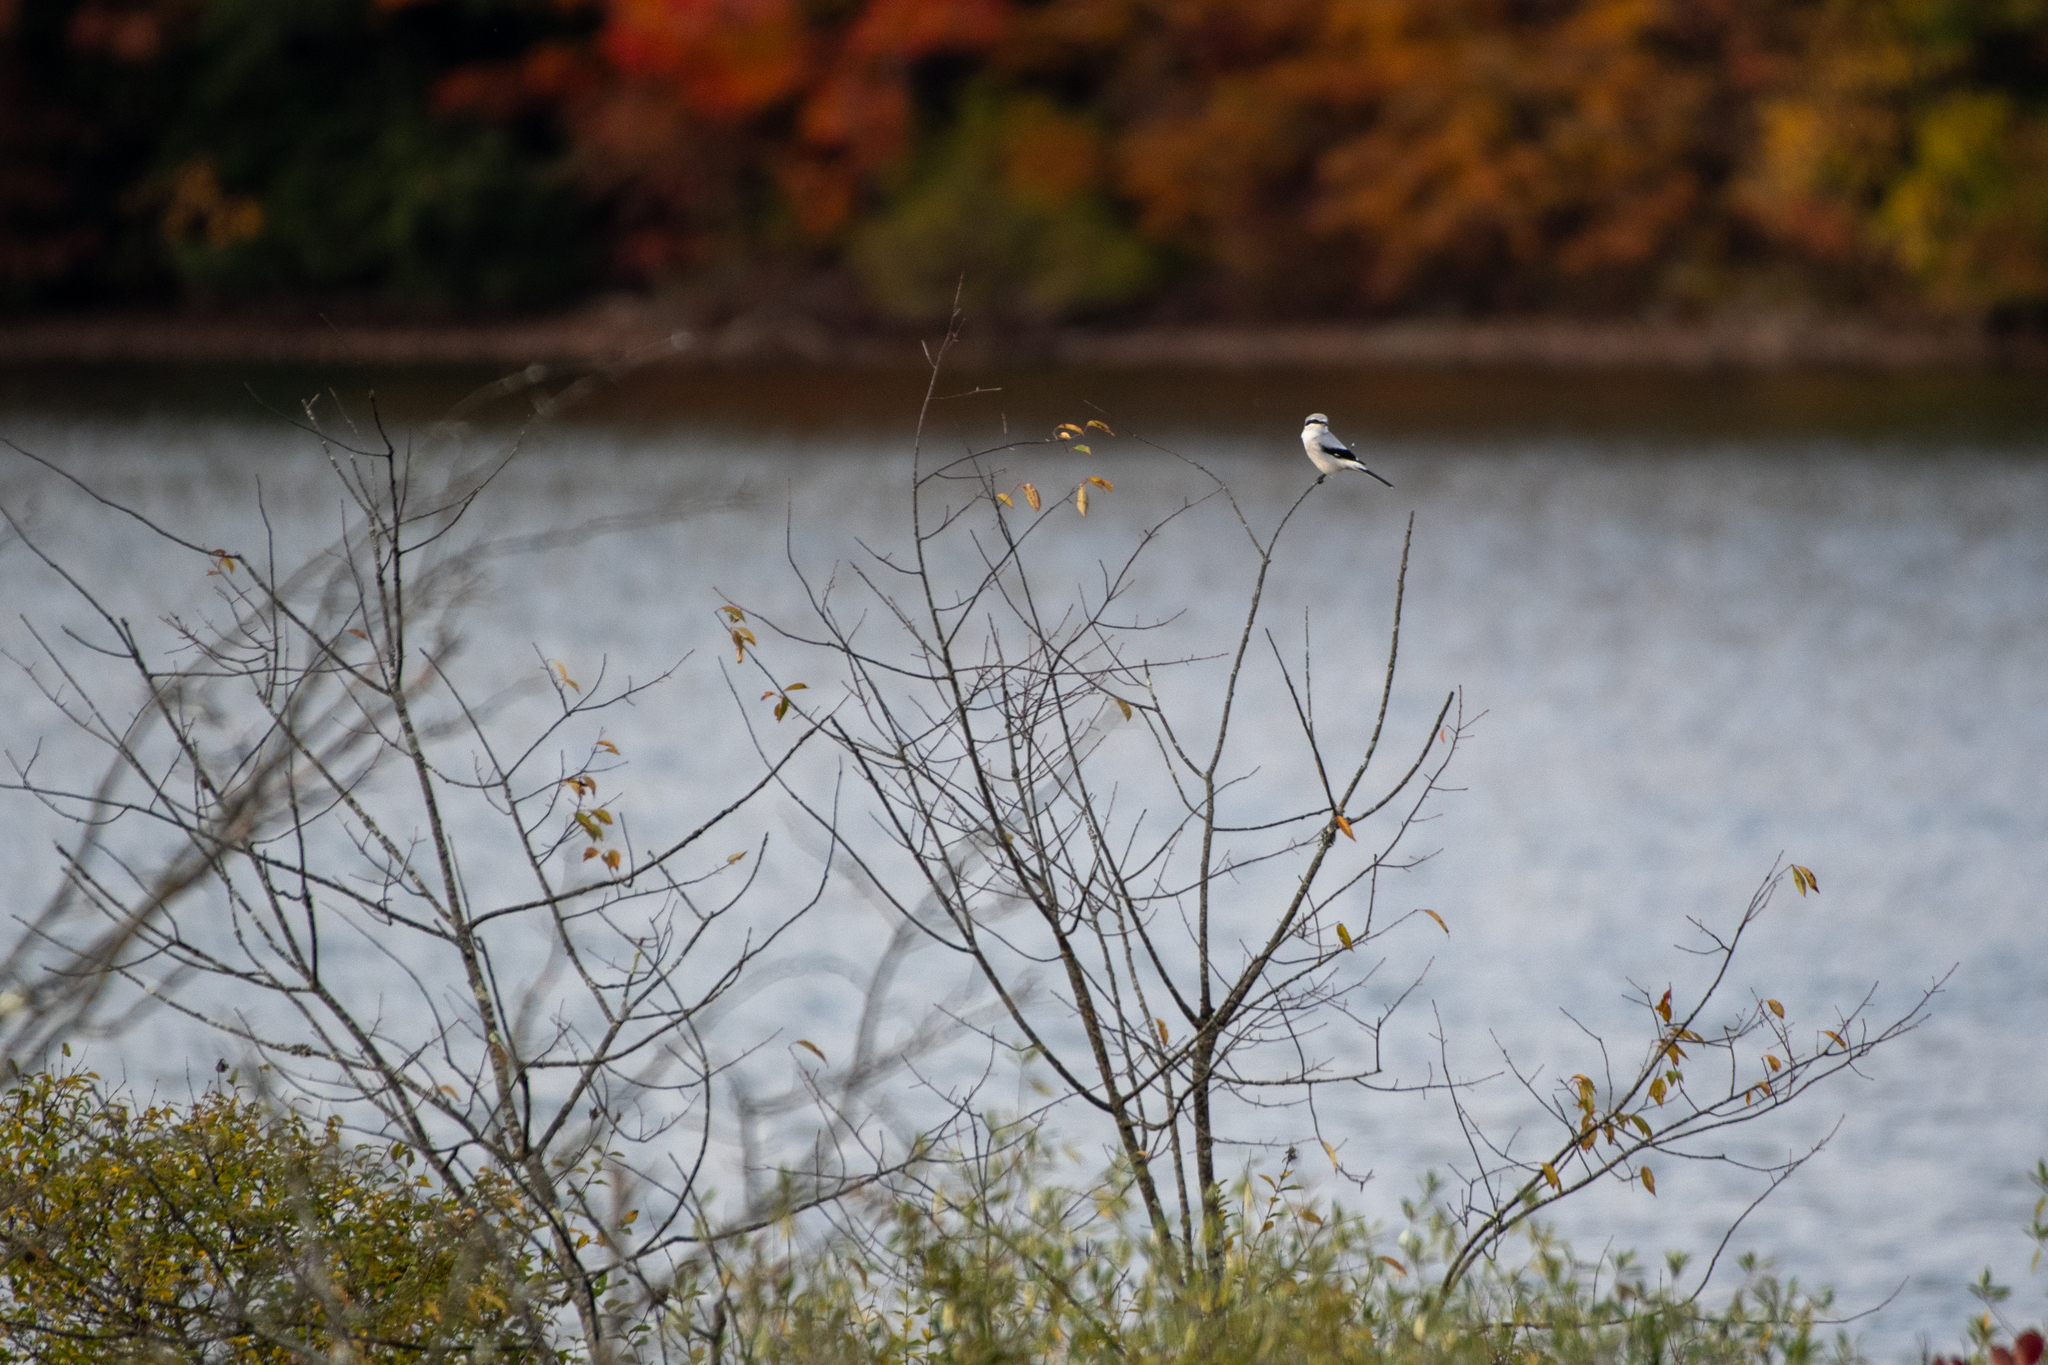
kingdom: Animalia
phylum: Chordata
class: Aves
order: Passeriformes
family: Laniidae
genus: Lanius
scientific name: Lanius borealis
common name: Northern shrike
